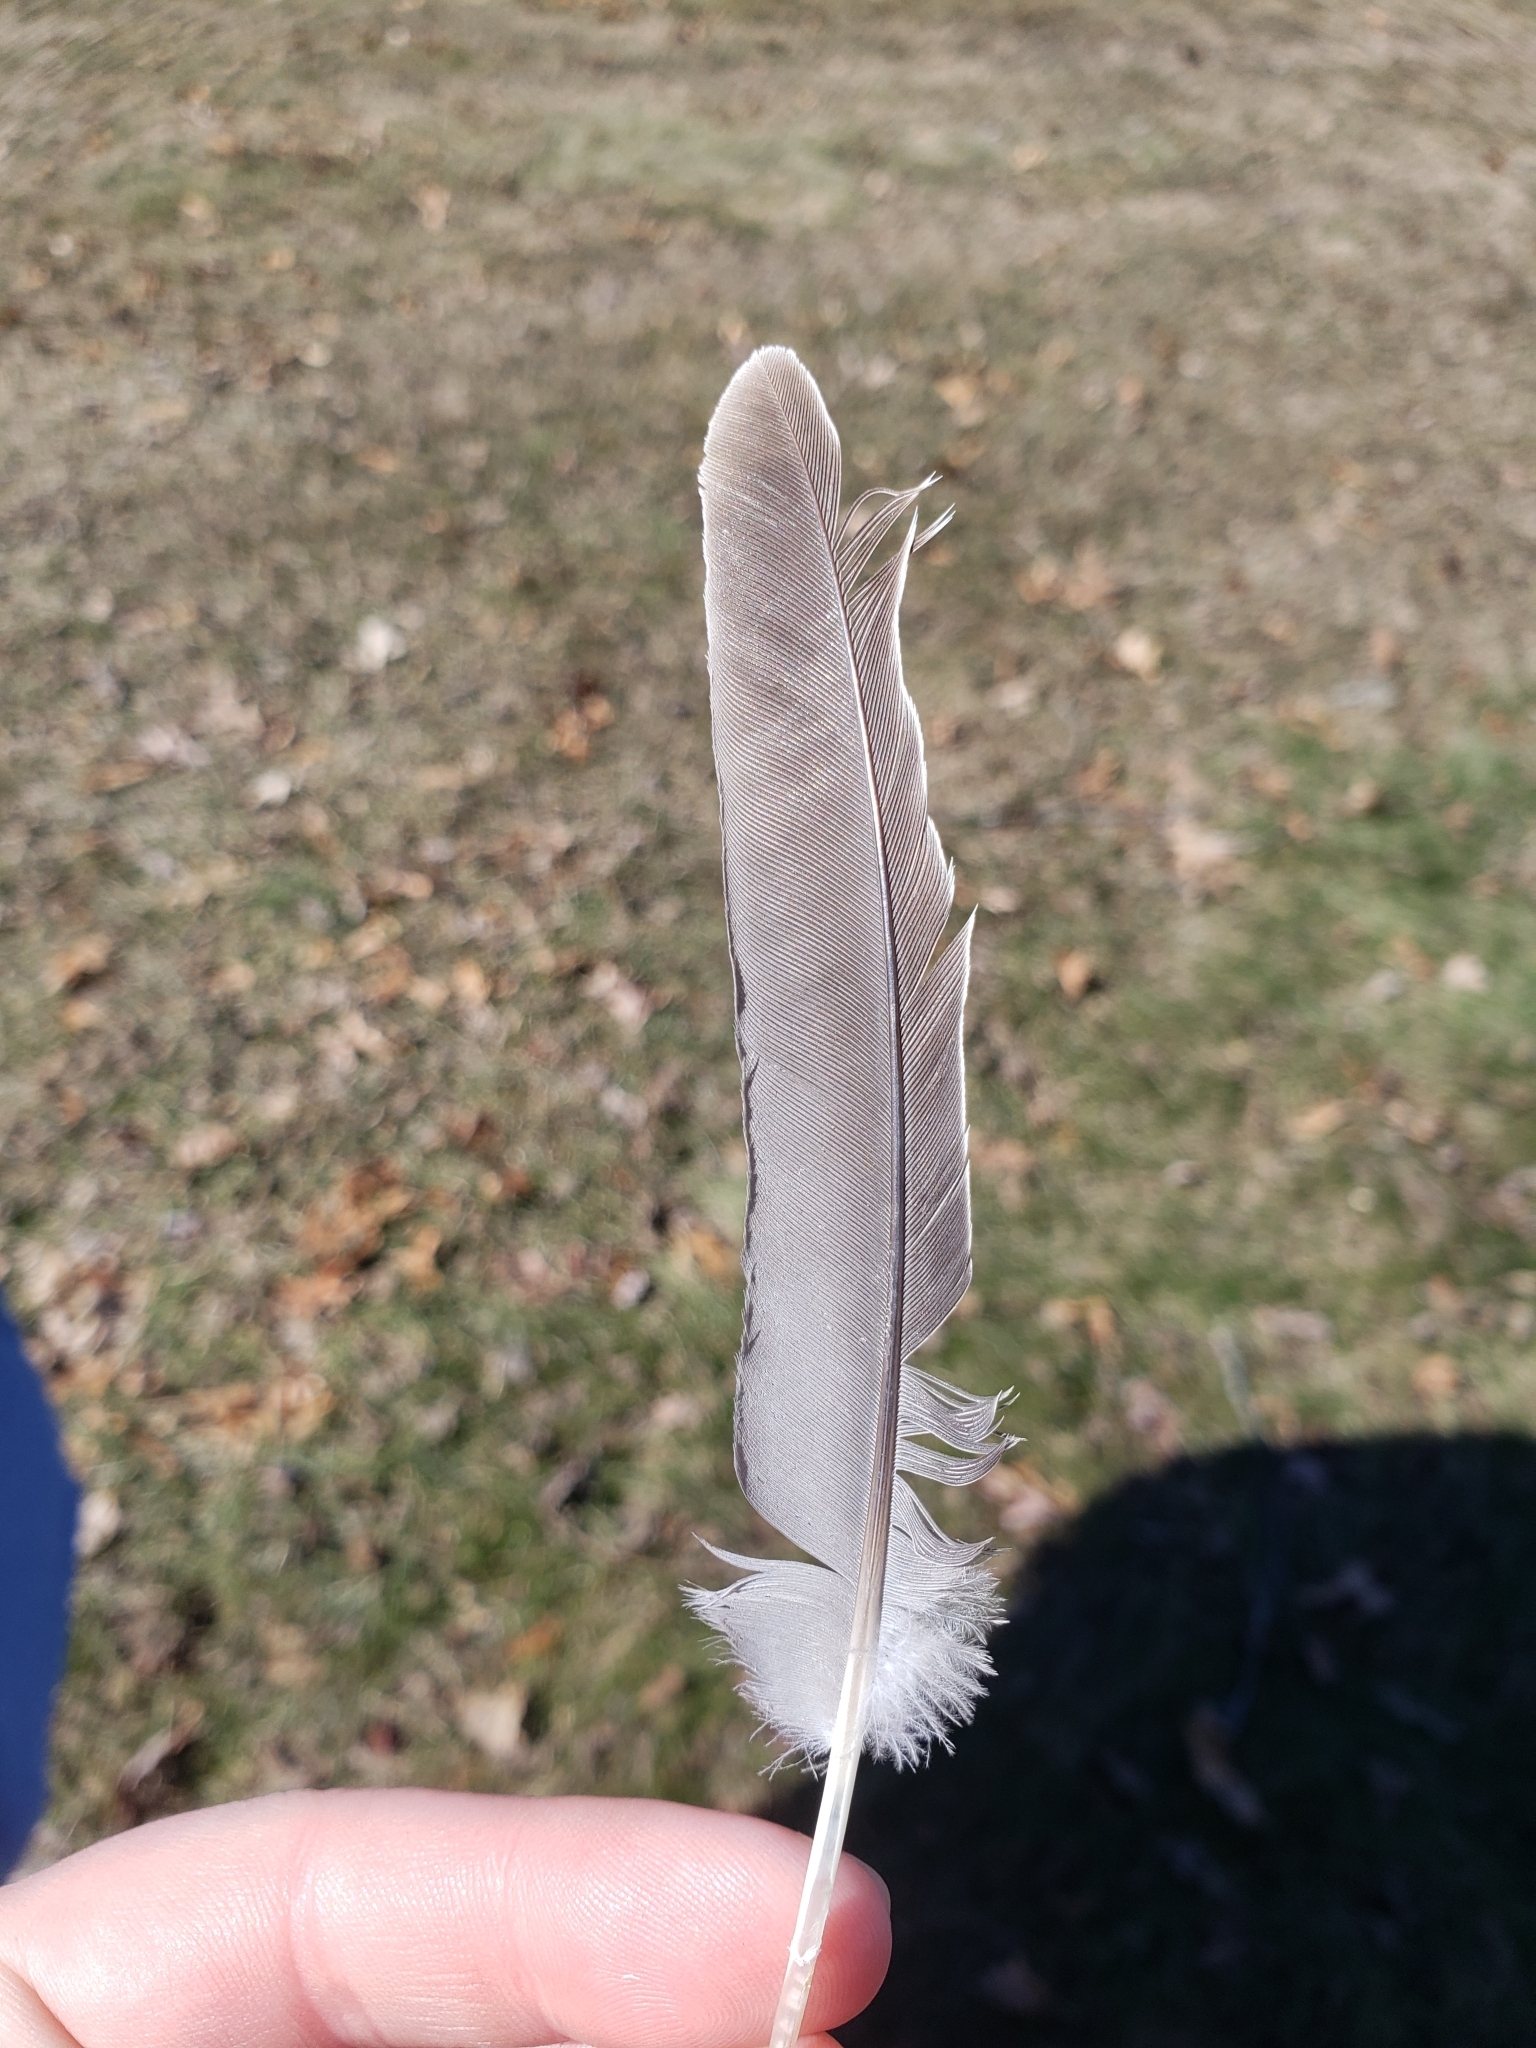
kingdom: Animalia
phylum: Chordata
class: Aves
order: Columbiformes
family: Columbidae
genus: Zenaida
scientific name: Zenaida macroura
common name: Mourning dove
